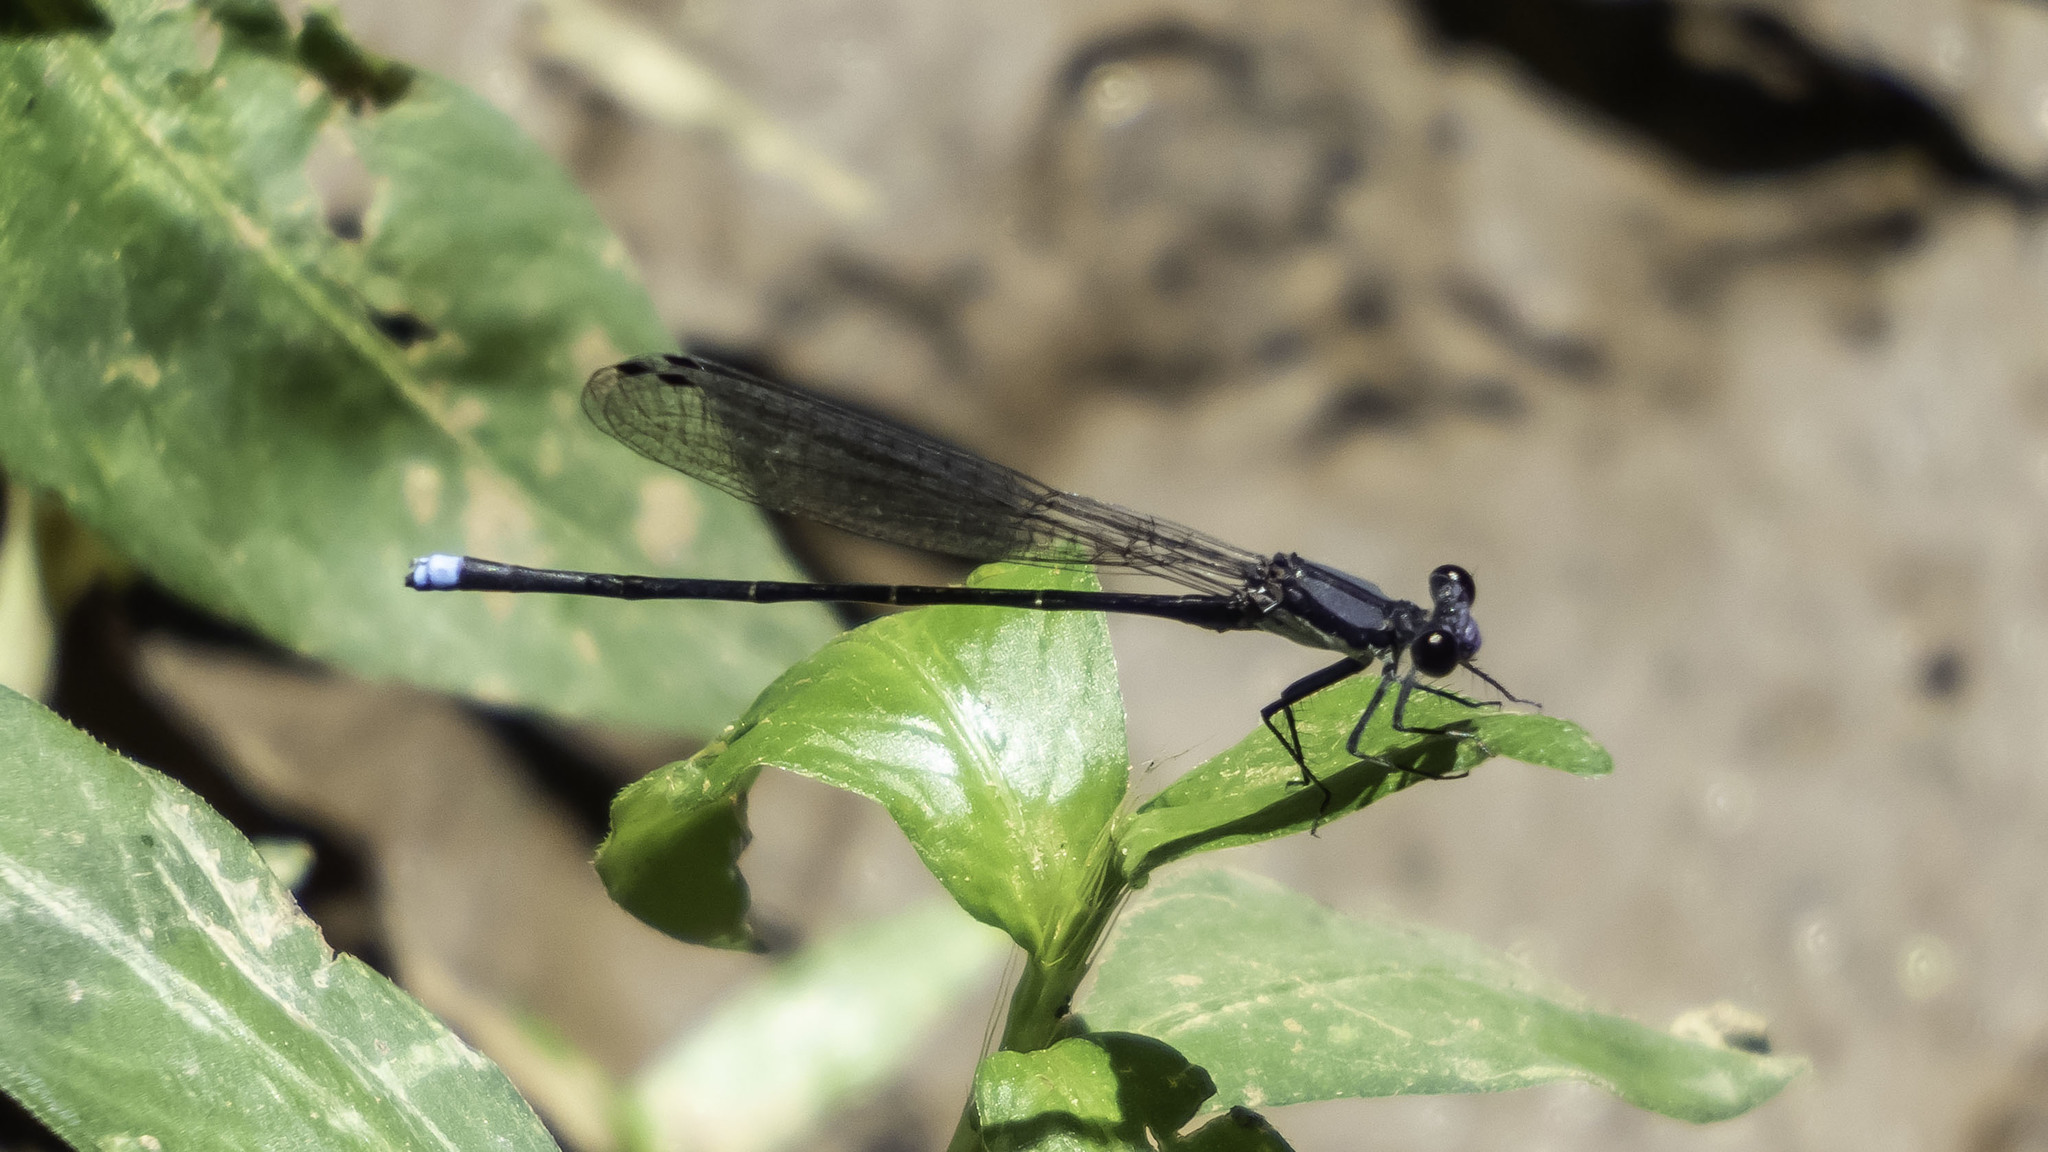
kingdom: Animalia
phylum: Arthropoda
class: Insecta
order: Odonata
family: Coenagrionidae
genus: Argia
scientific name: Argia tibialis
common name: Blue-tipped dancer
